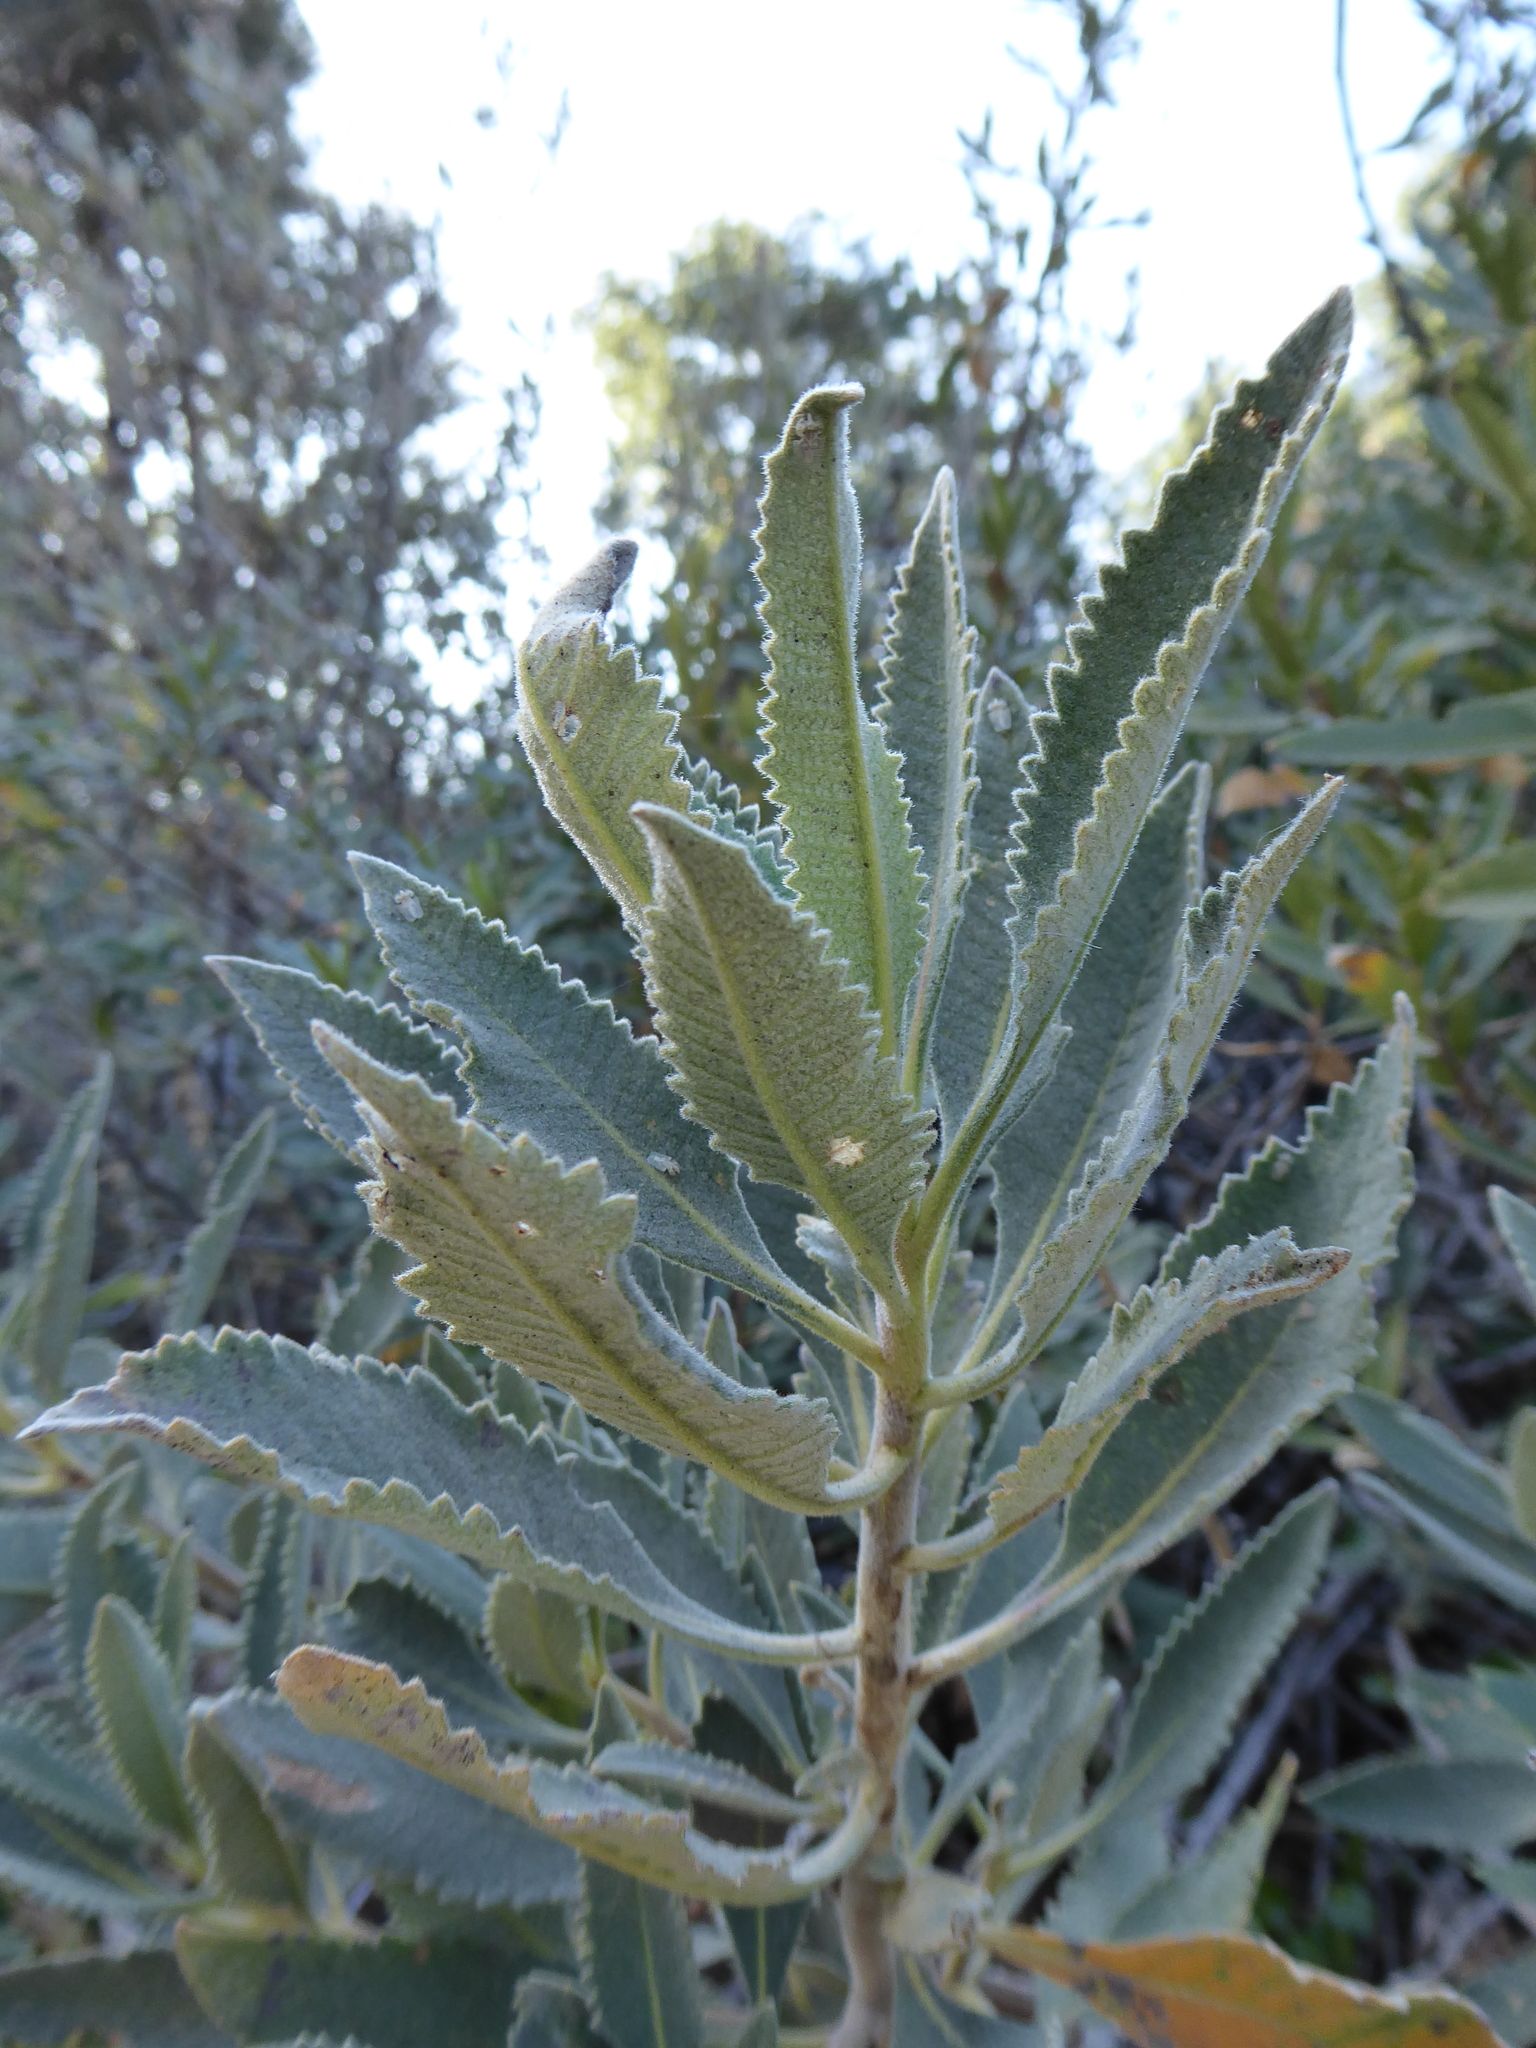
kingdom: Plantae
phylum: Tracheophyta
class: Magnoliopsida
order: Boraginales
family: Namaceae
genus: Eriodictyon
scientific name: Eriodictyon crassifolium
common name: Thick-leaf yerba-santa
